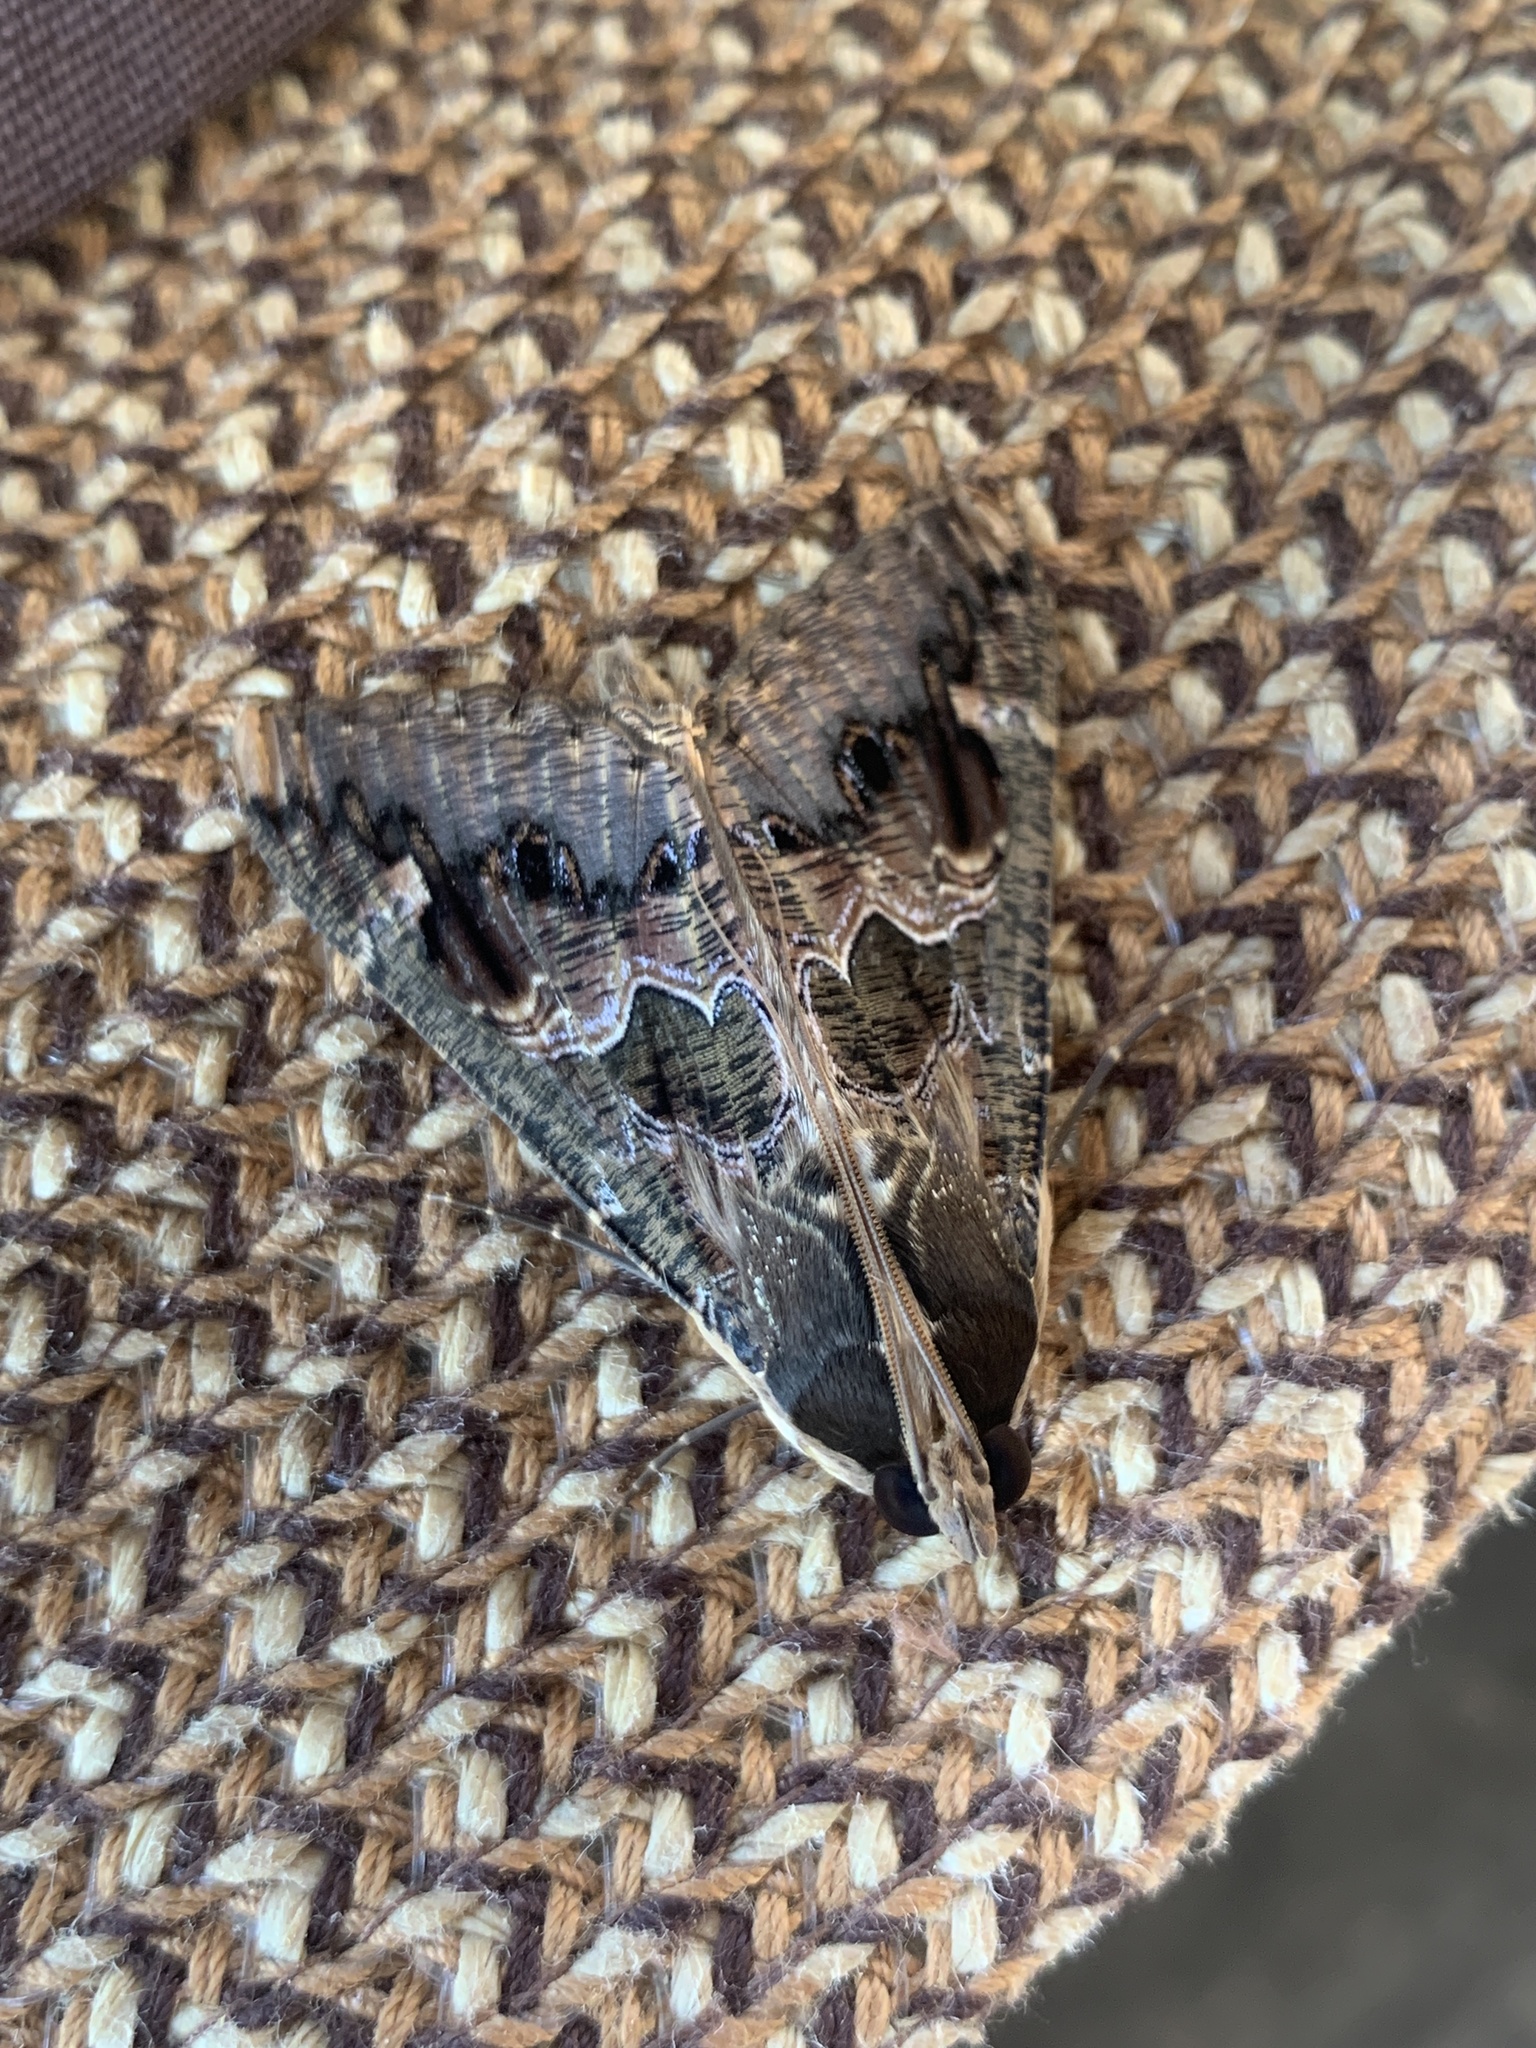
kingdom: Animalia
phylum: Arthropoda
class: Insecta
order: Lepidoptera
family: Erebidae
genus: Sphingomorpha
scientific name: Sphingomorpha chlorea
